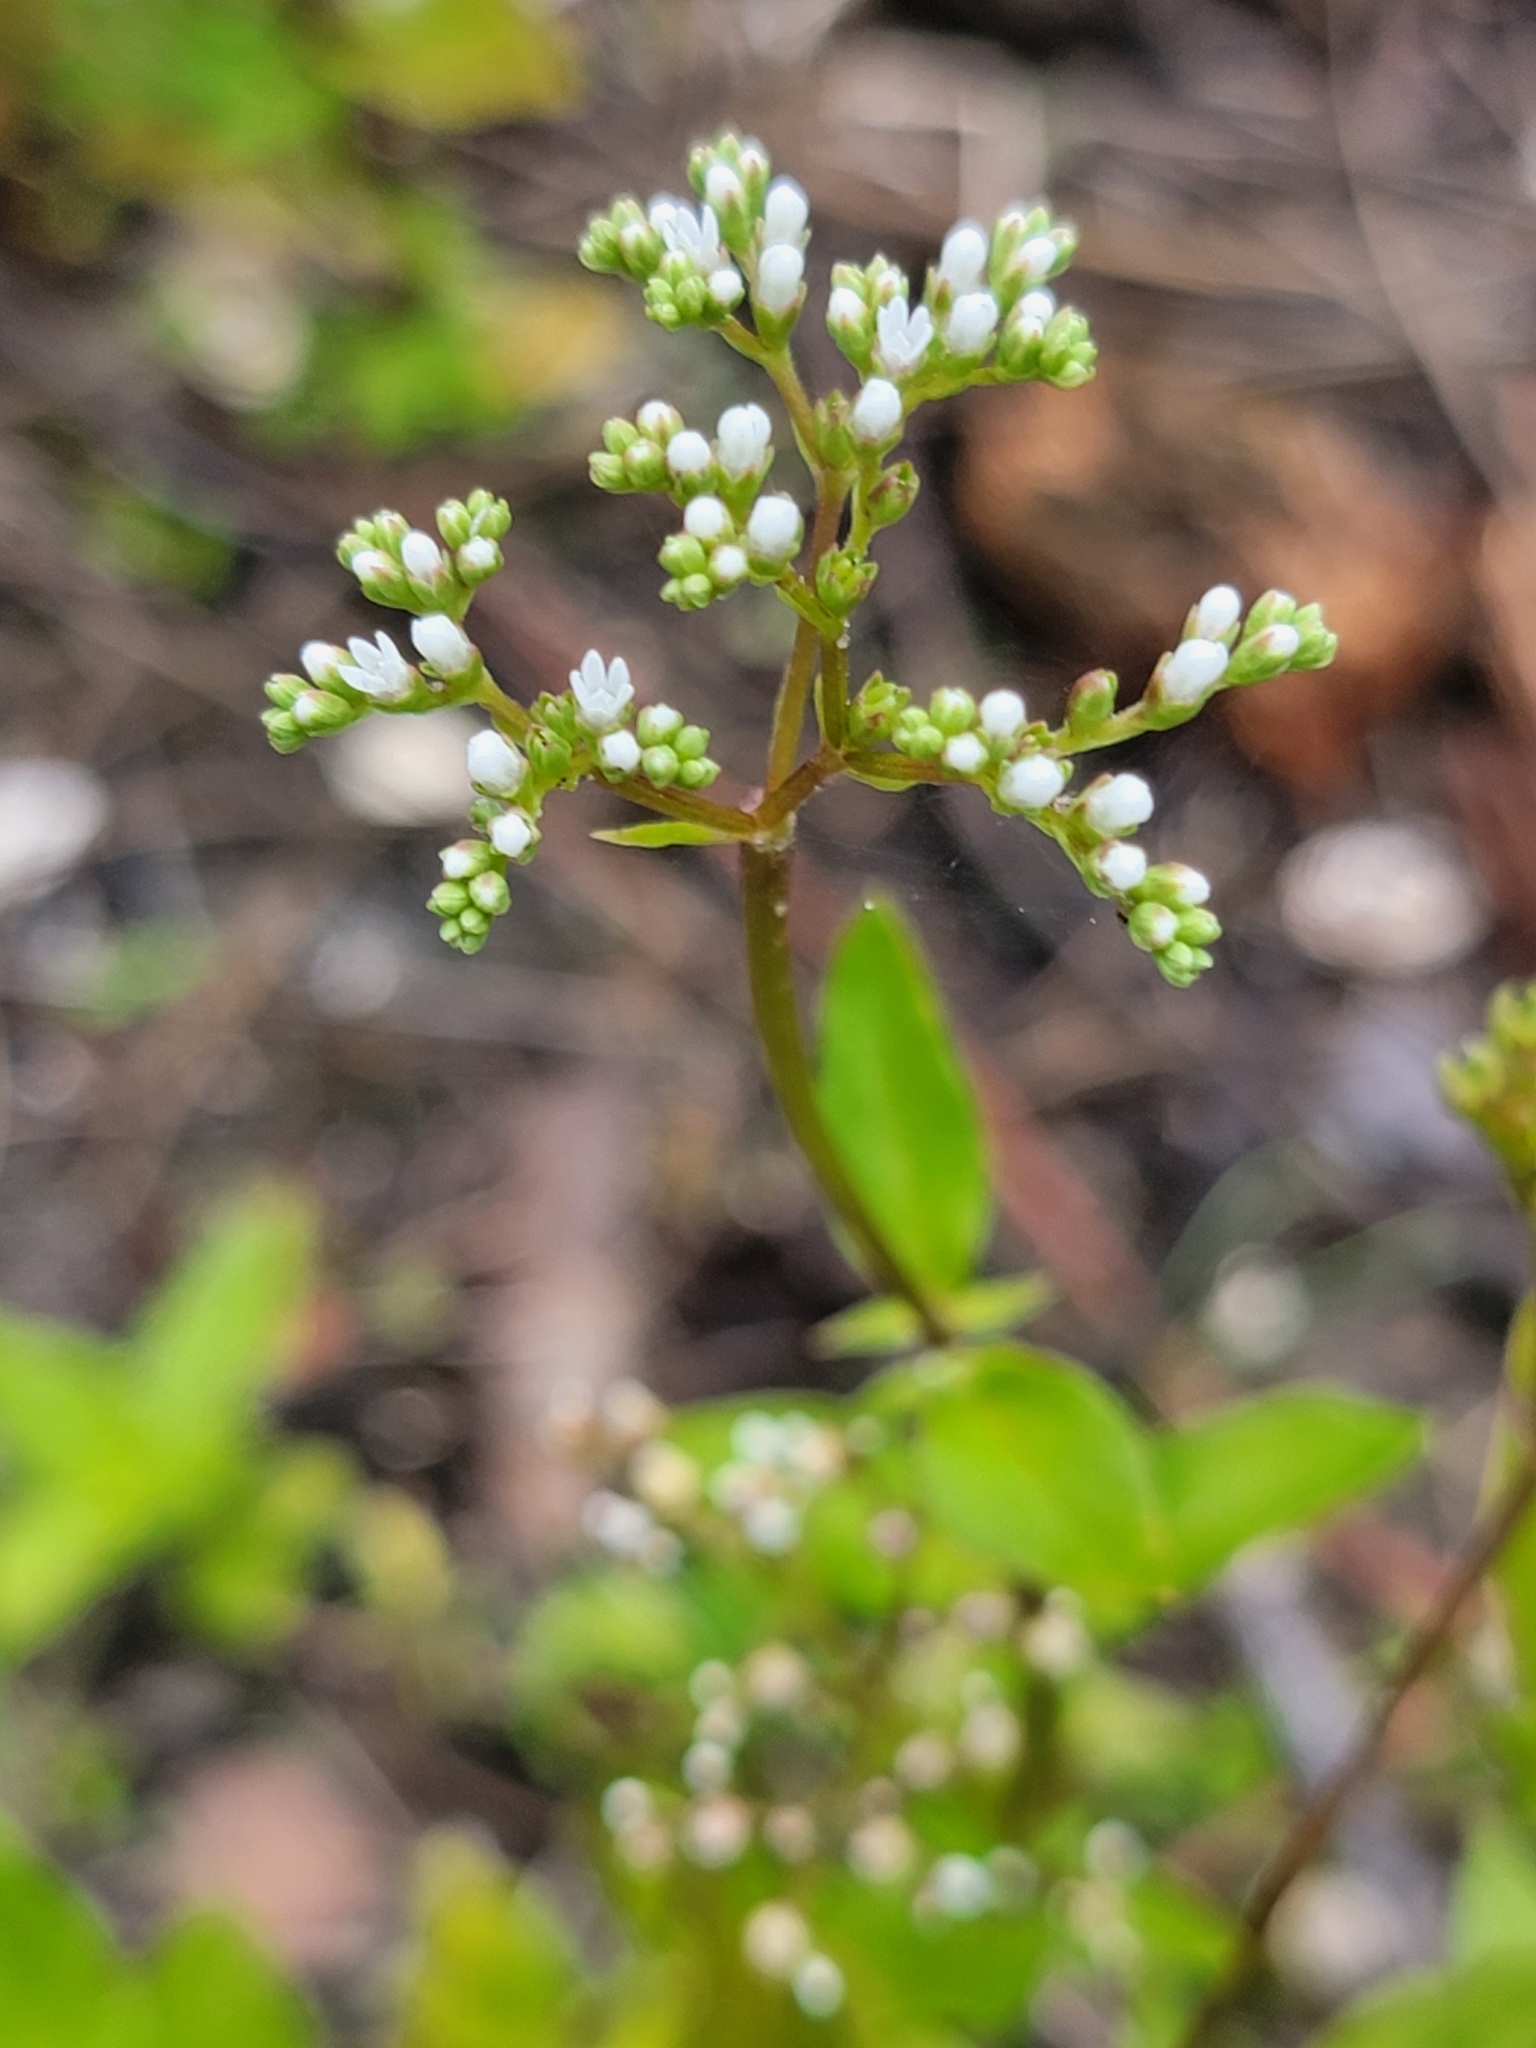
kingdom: Plantae
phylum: Tracheophyta
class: Magnoliopsida
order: Gentianales
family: Loganiaceae
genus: Mitreola
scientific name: Mitreola petiolata
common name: Lax hornpod
